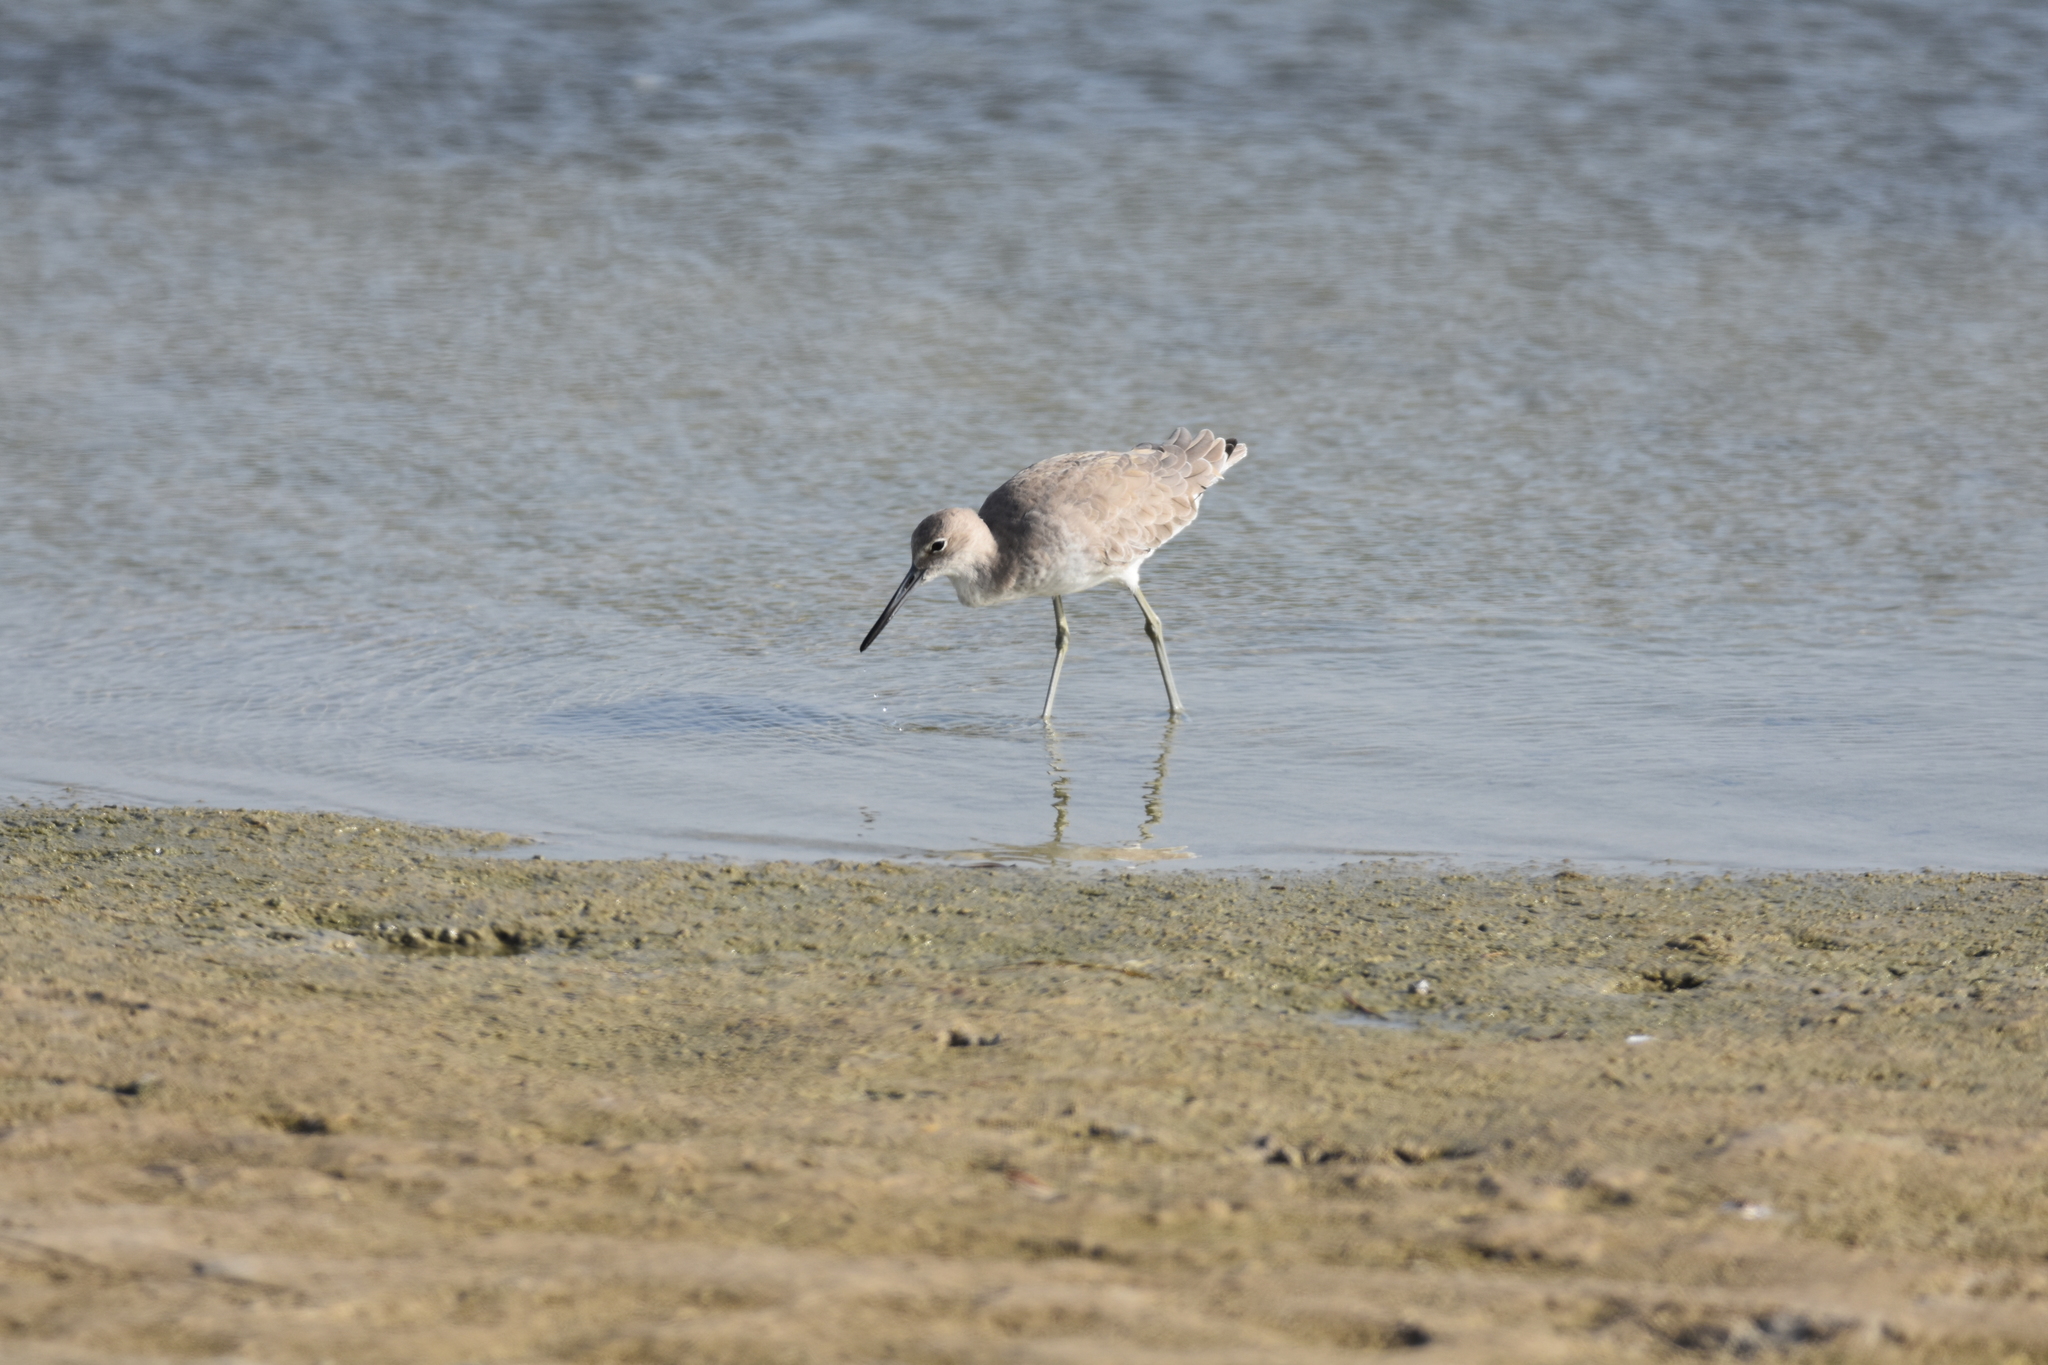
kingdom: Animalia
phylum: Chordata
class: Aves
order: Charadriiformes
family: Scolopacidae
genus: Tringa
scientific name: Tringa semipalmata
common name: Willet
